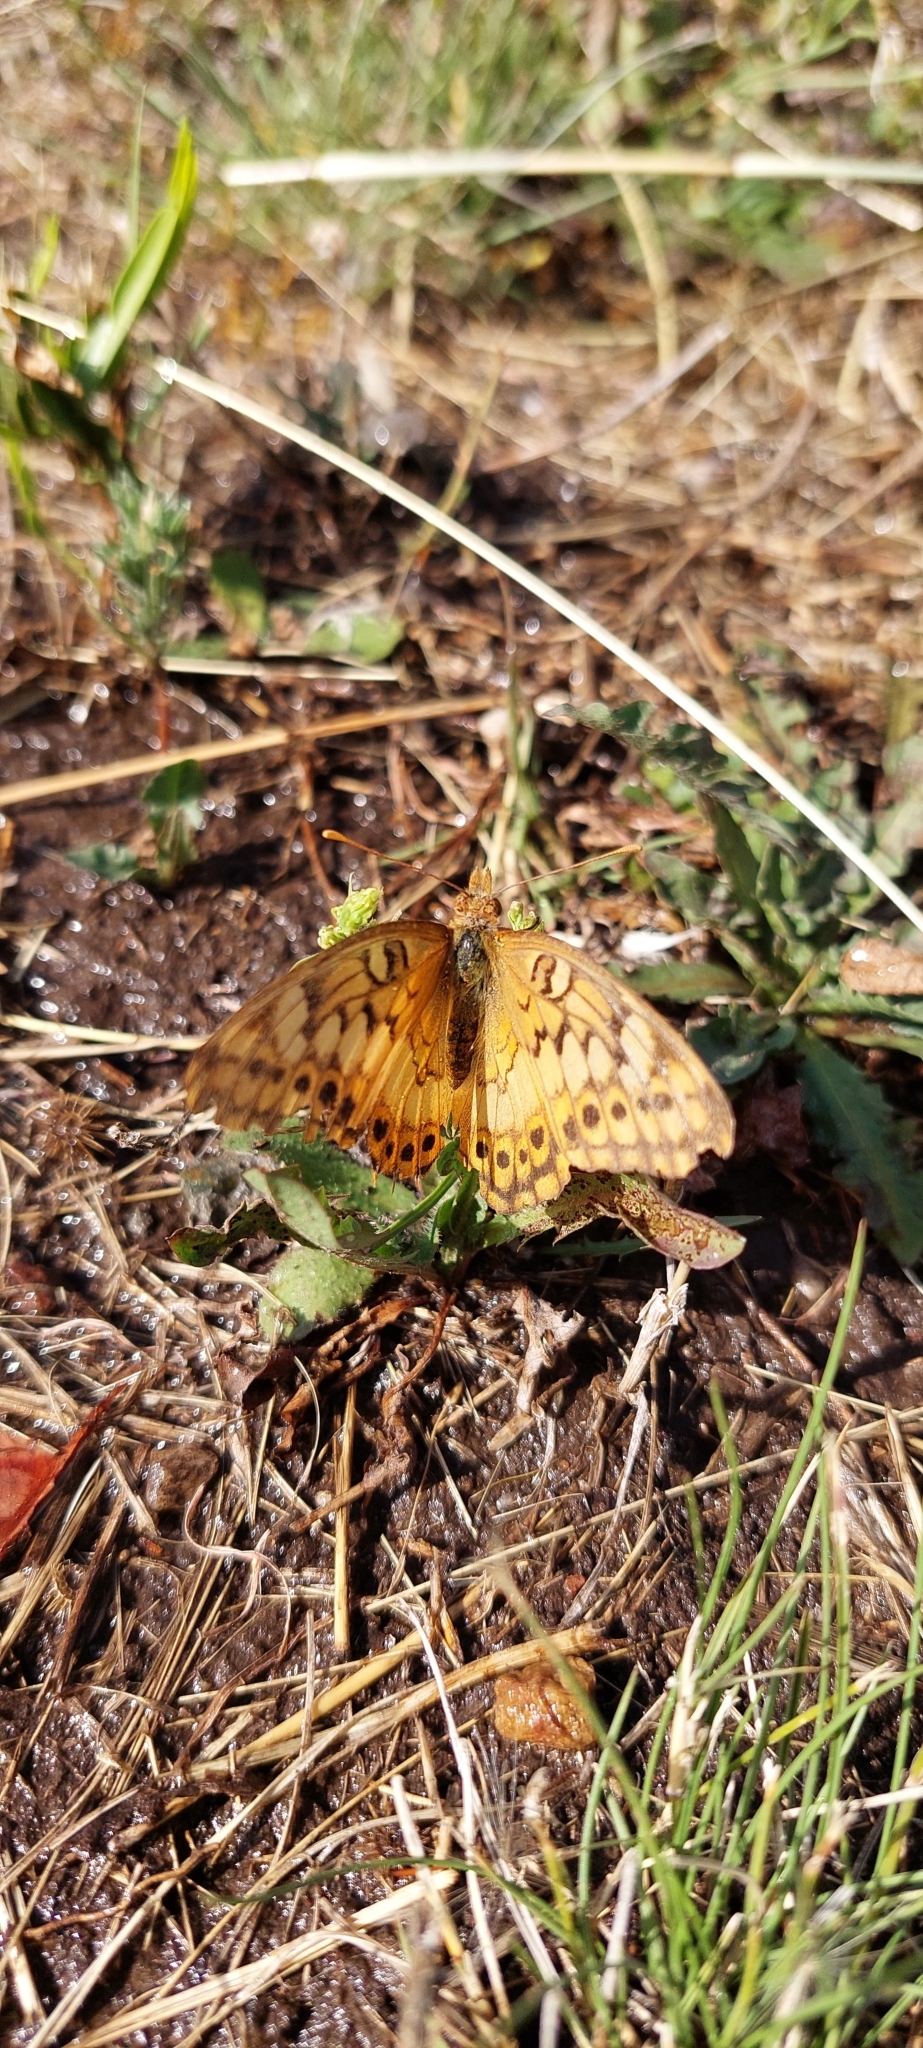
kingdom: Animalia
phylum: Arthropoda
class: Insecta
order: Lepidoptera
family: Nymphalidae
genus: Euptoieta
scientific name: Euptoieta hortensia
